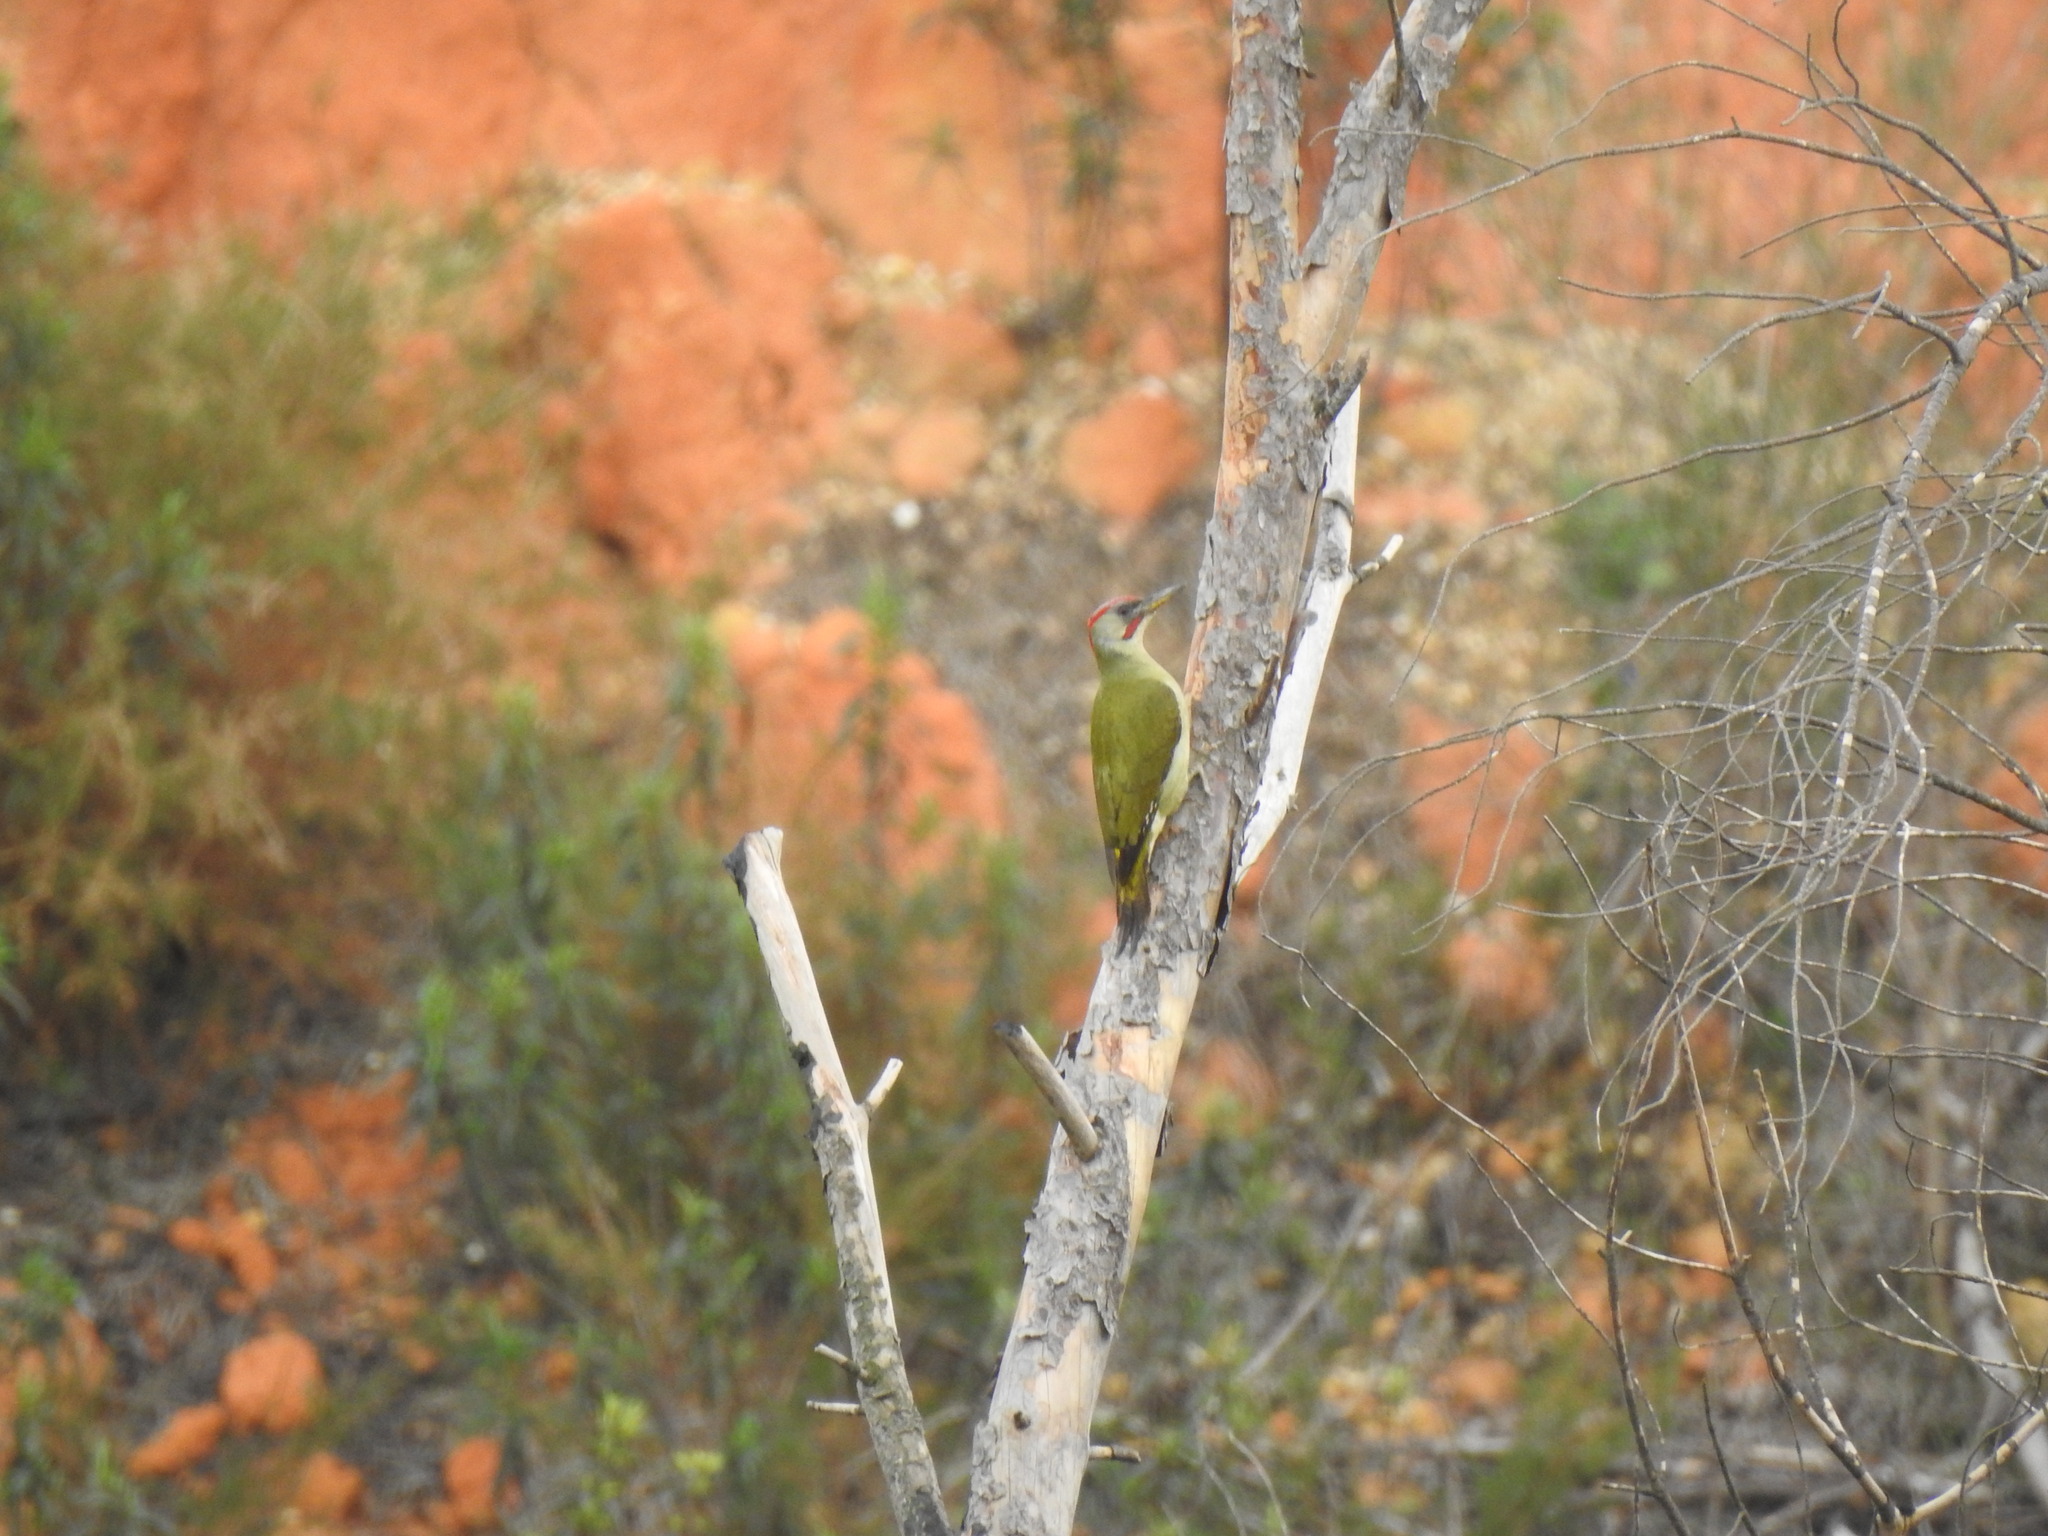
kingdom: Animalia
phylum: Chordata
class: Aves
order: Piciformes
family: Picidae
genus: Picus
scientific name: Picus sharpei
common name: Iberian green woodpecker
